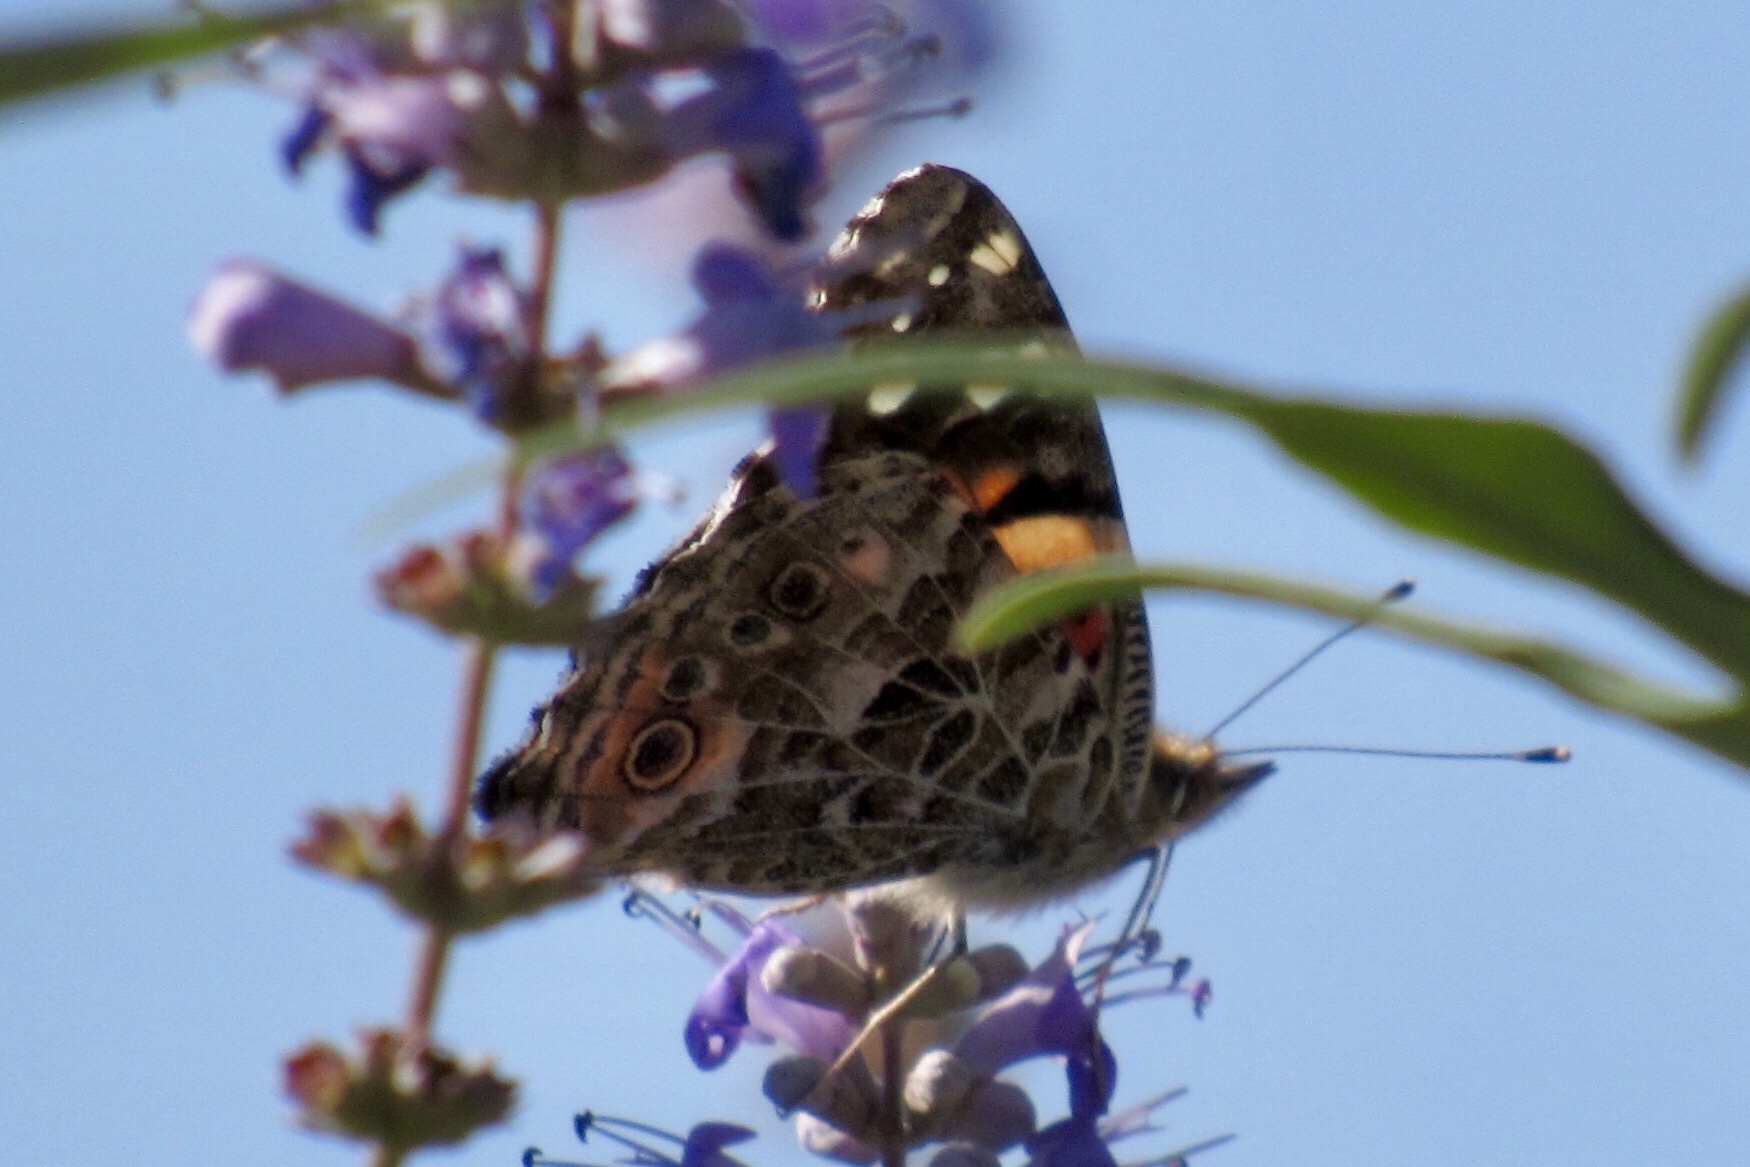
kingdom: Animalia
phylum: Arthropoda
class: Insecta
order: Lepidoptera
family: Nymphalidae
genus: Vanessa
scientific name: Vanessa cardui
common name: Painted lady
